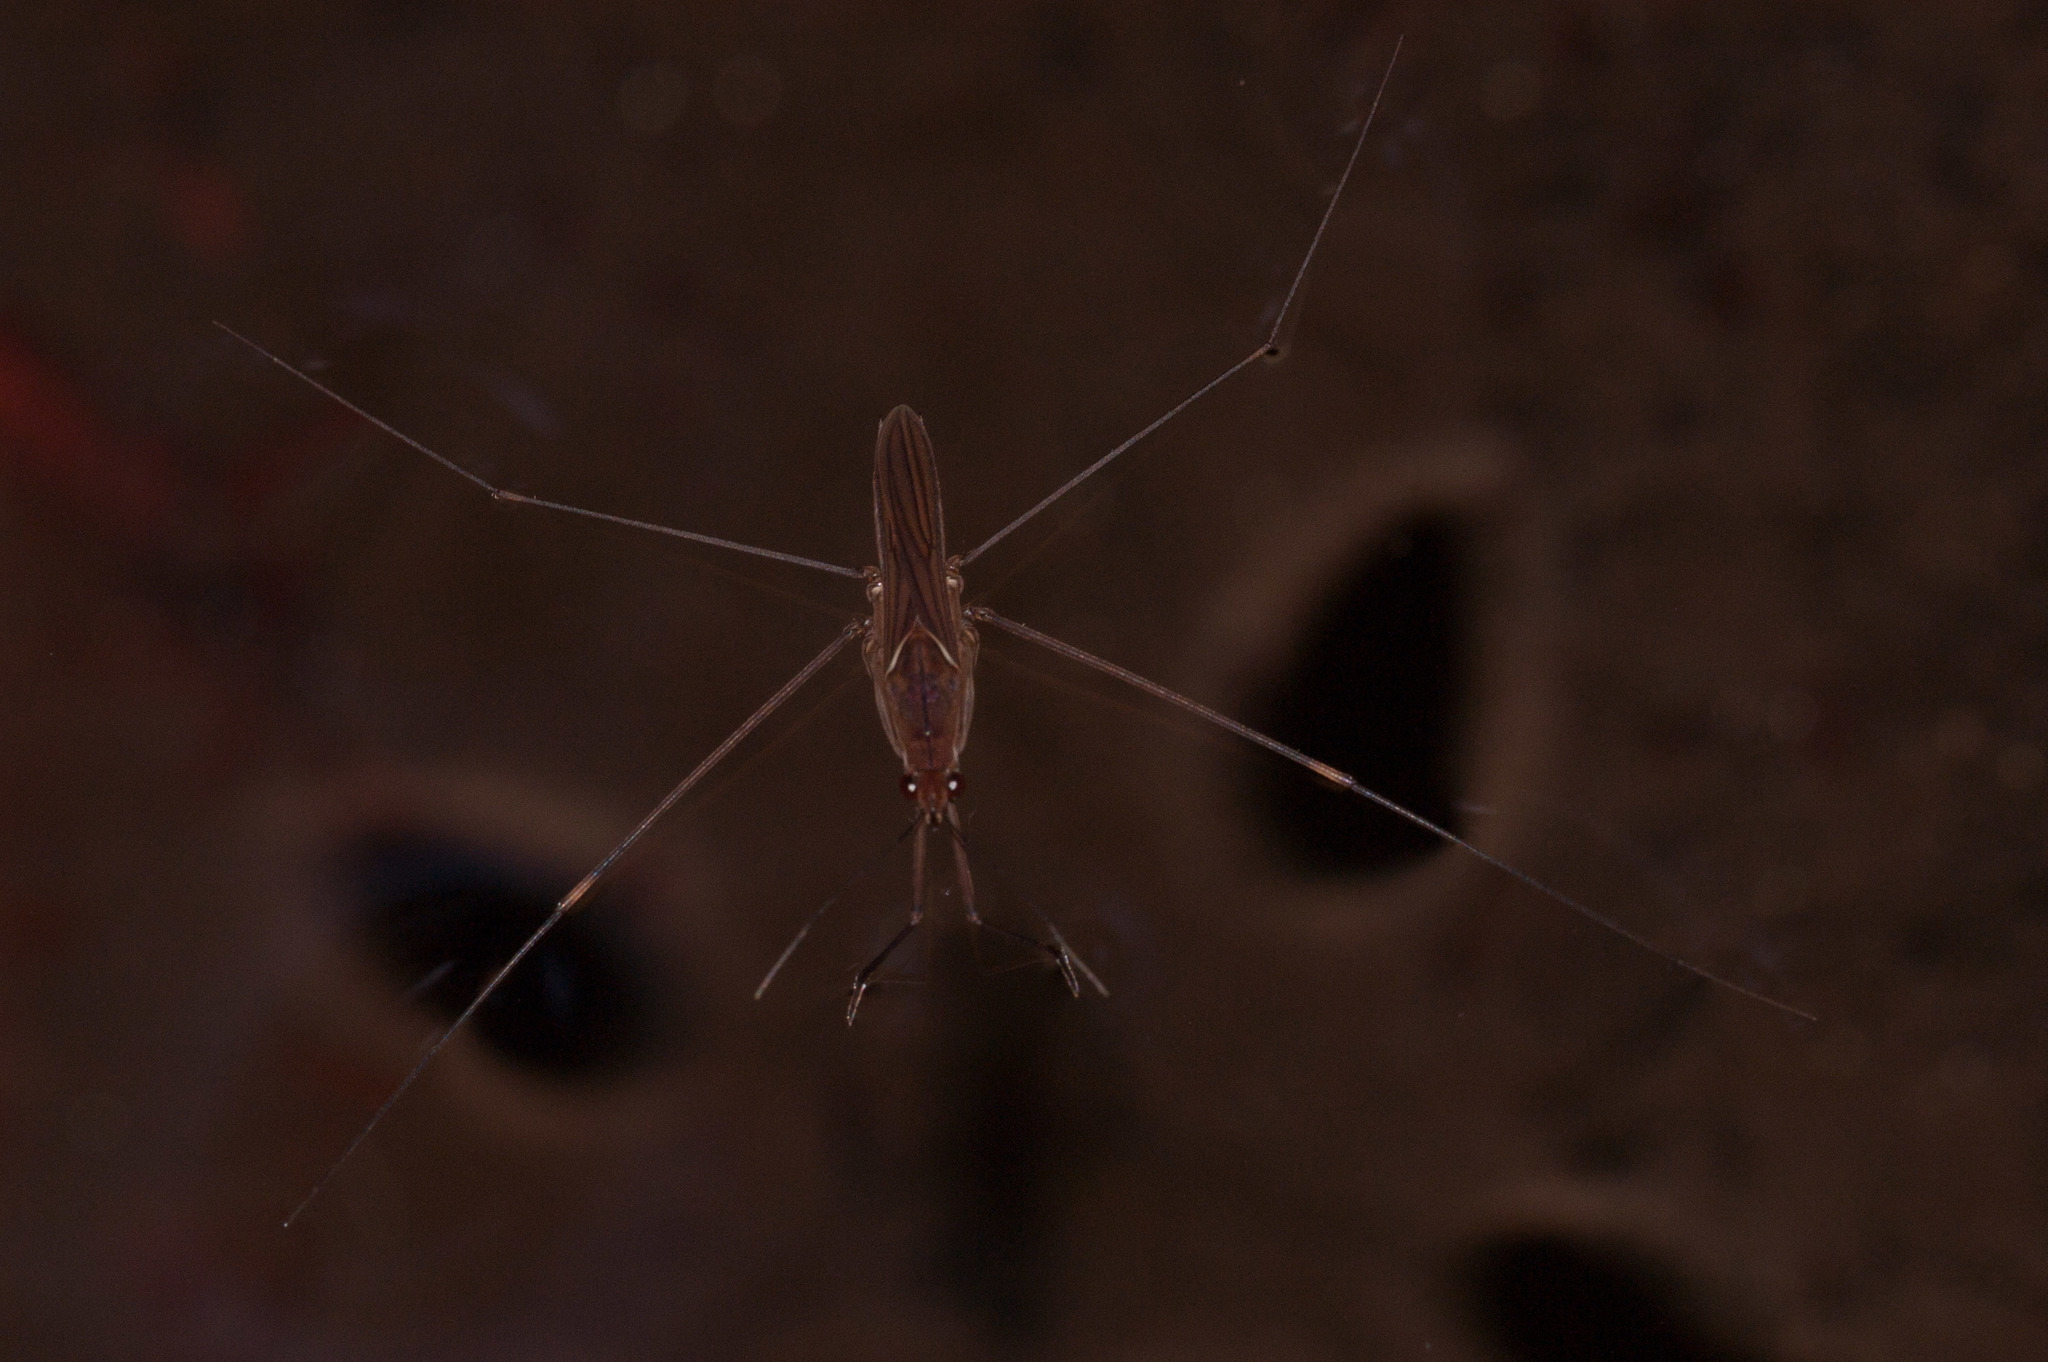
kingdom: Animalia
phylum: Arthropoda
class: Insecta
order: Hemiptera
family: Gerridae
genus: Limnometra
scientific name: Limnometra cursitans
